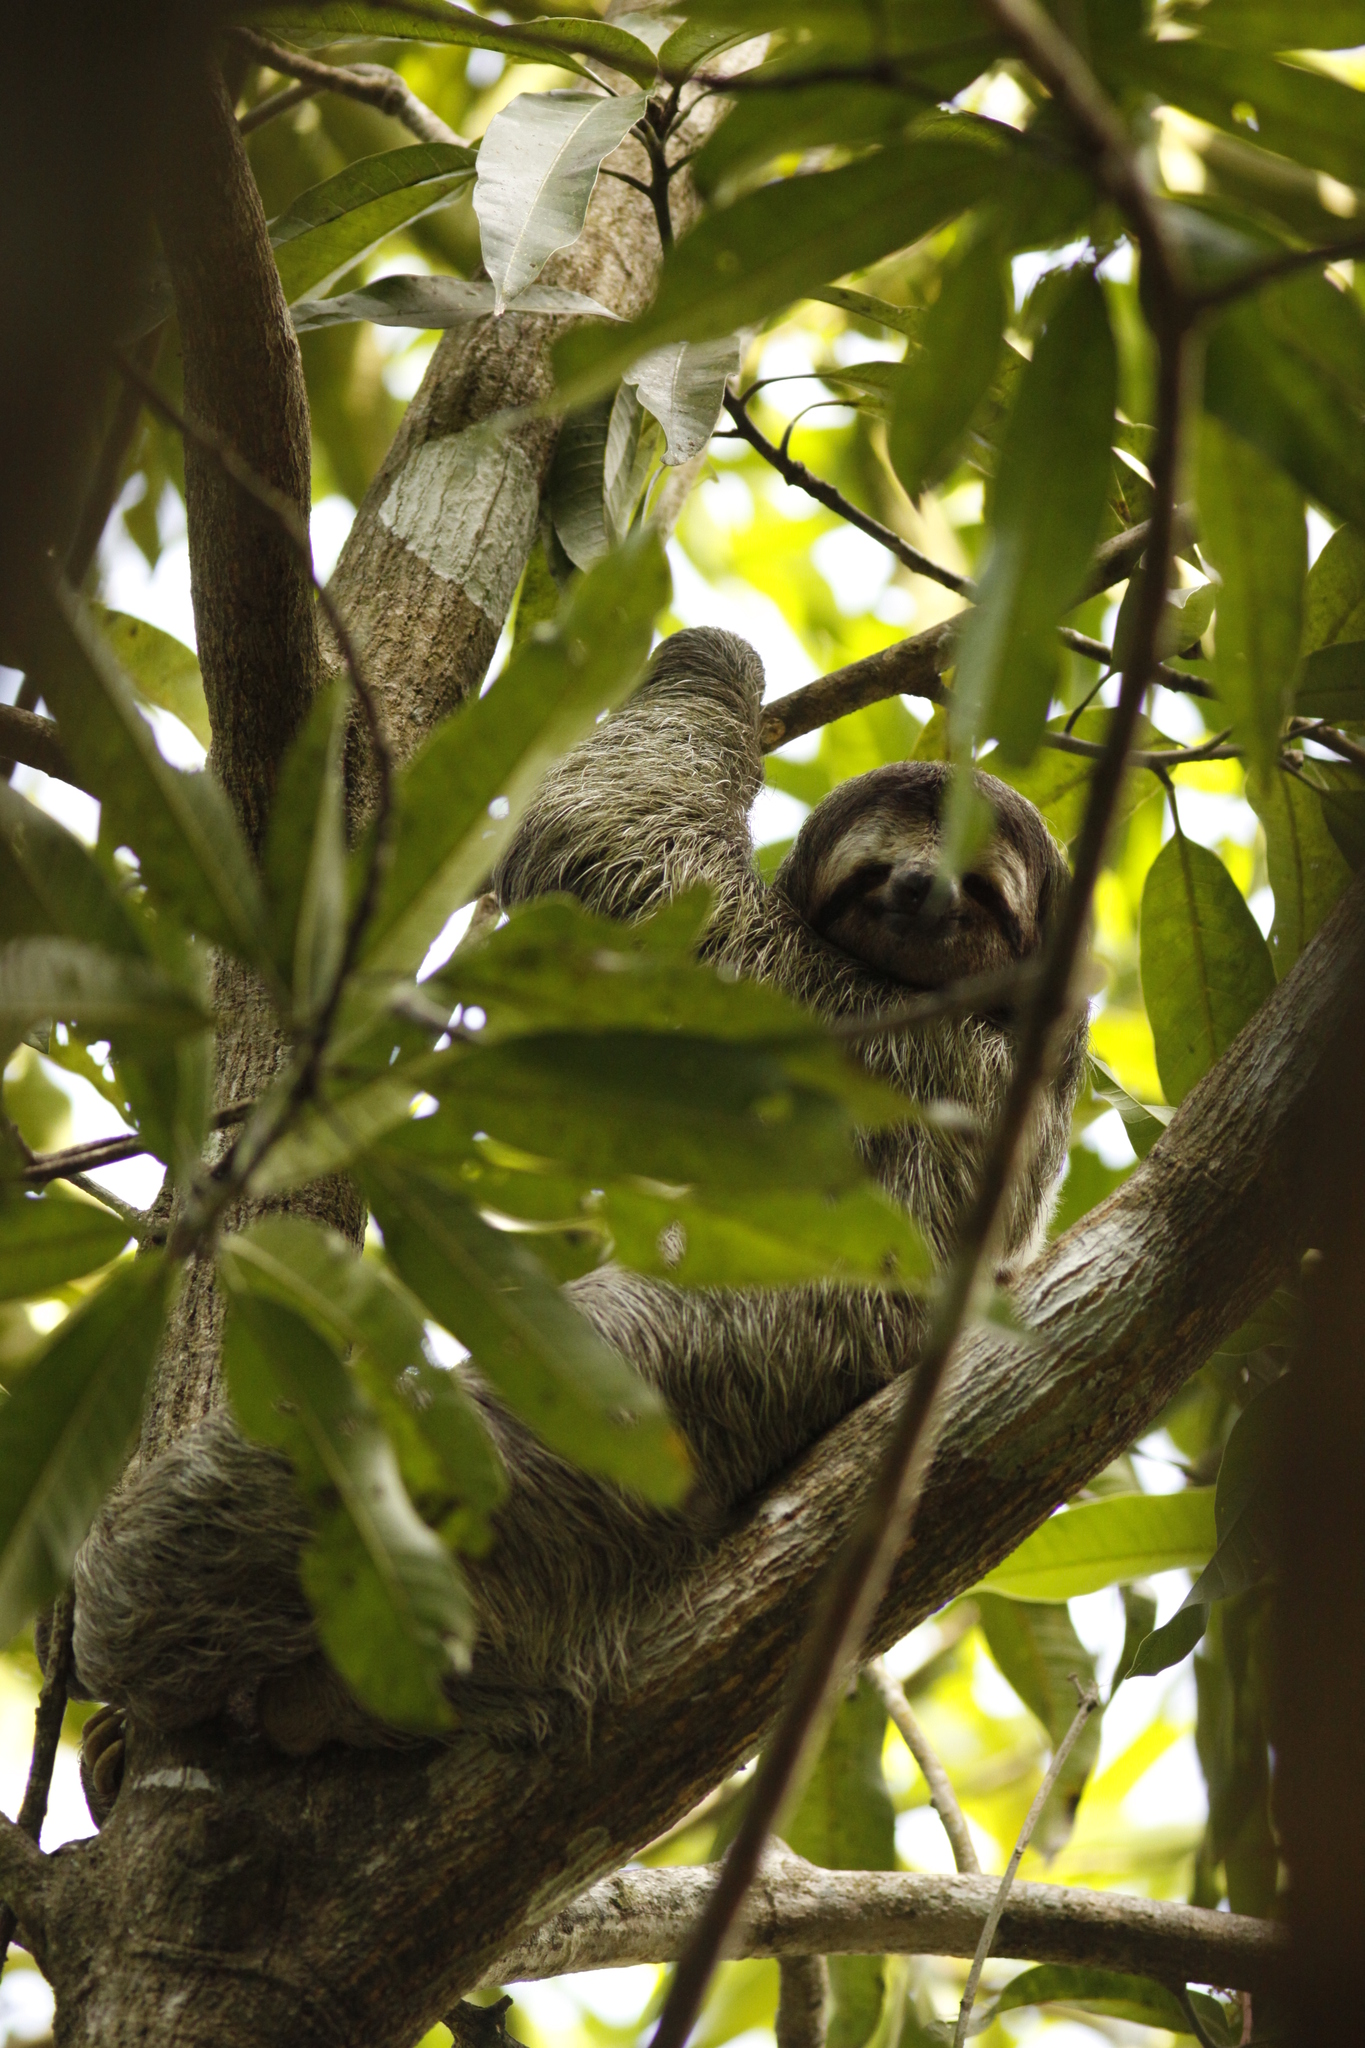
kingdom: Animalia
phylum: Chordata
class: Mammalia
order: Pilosa
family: Bradypodidae
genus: Bradypus
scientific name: Bradypus variegatus
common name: Brown-throated three-toed sloth
